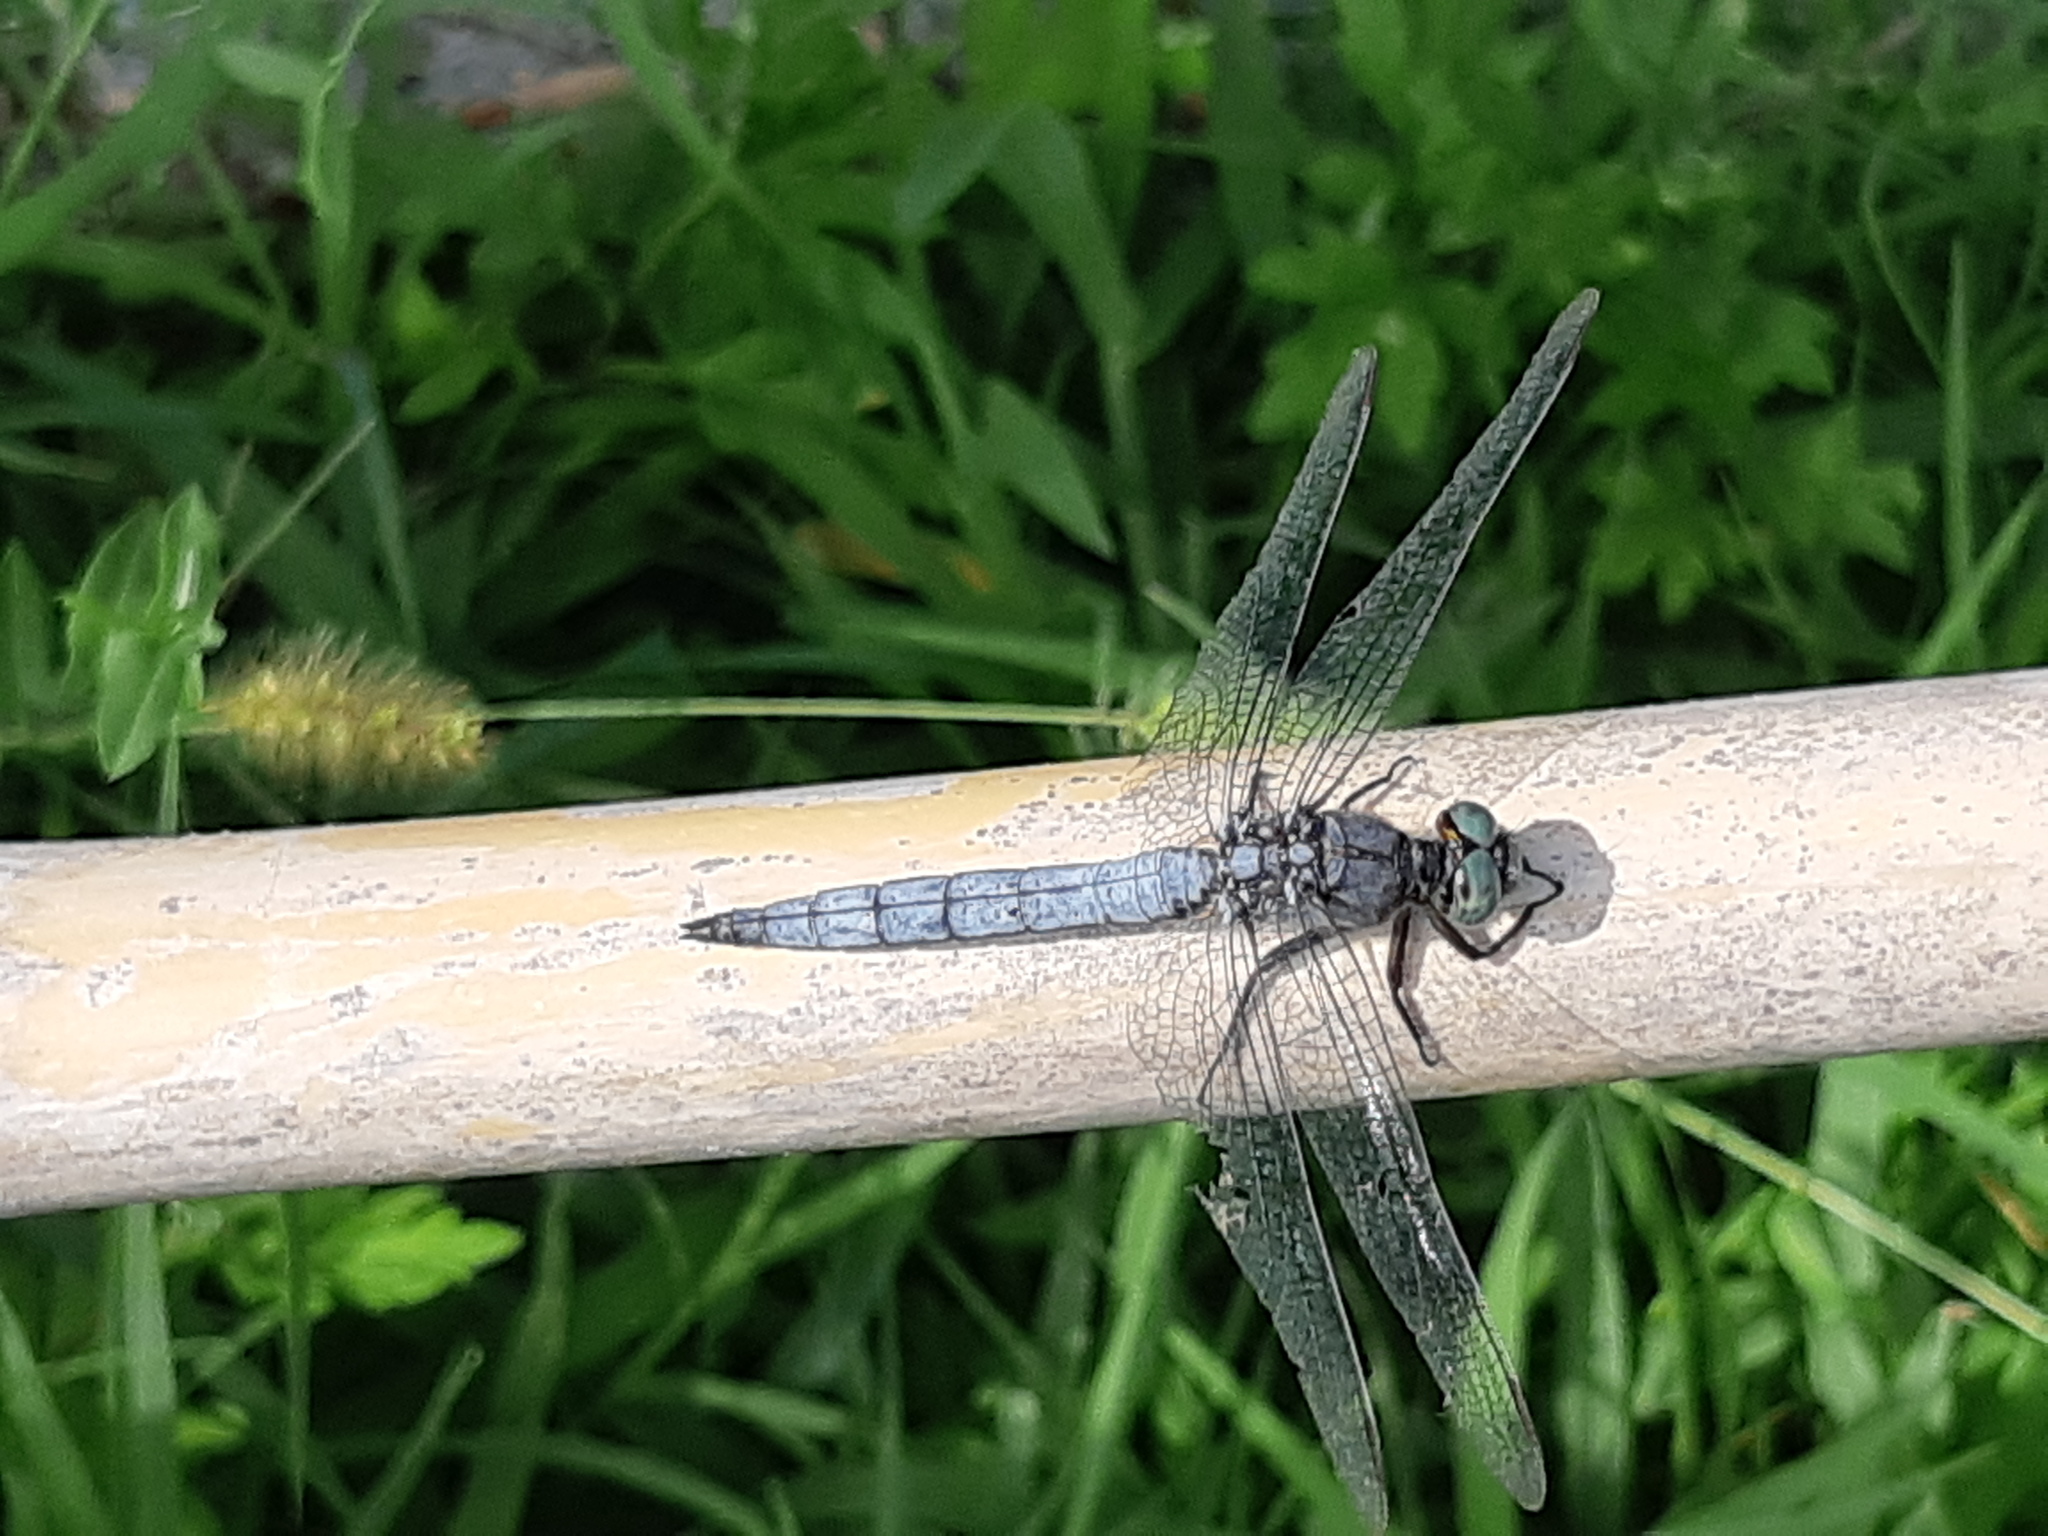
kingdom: Animalia
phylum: Arthropoda
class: Insecta
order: Odonata
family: Libellulidae
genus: Orthetrum
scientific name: Orthetrum coerulescens
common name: Keeled skimmer
